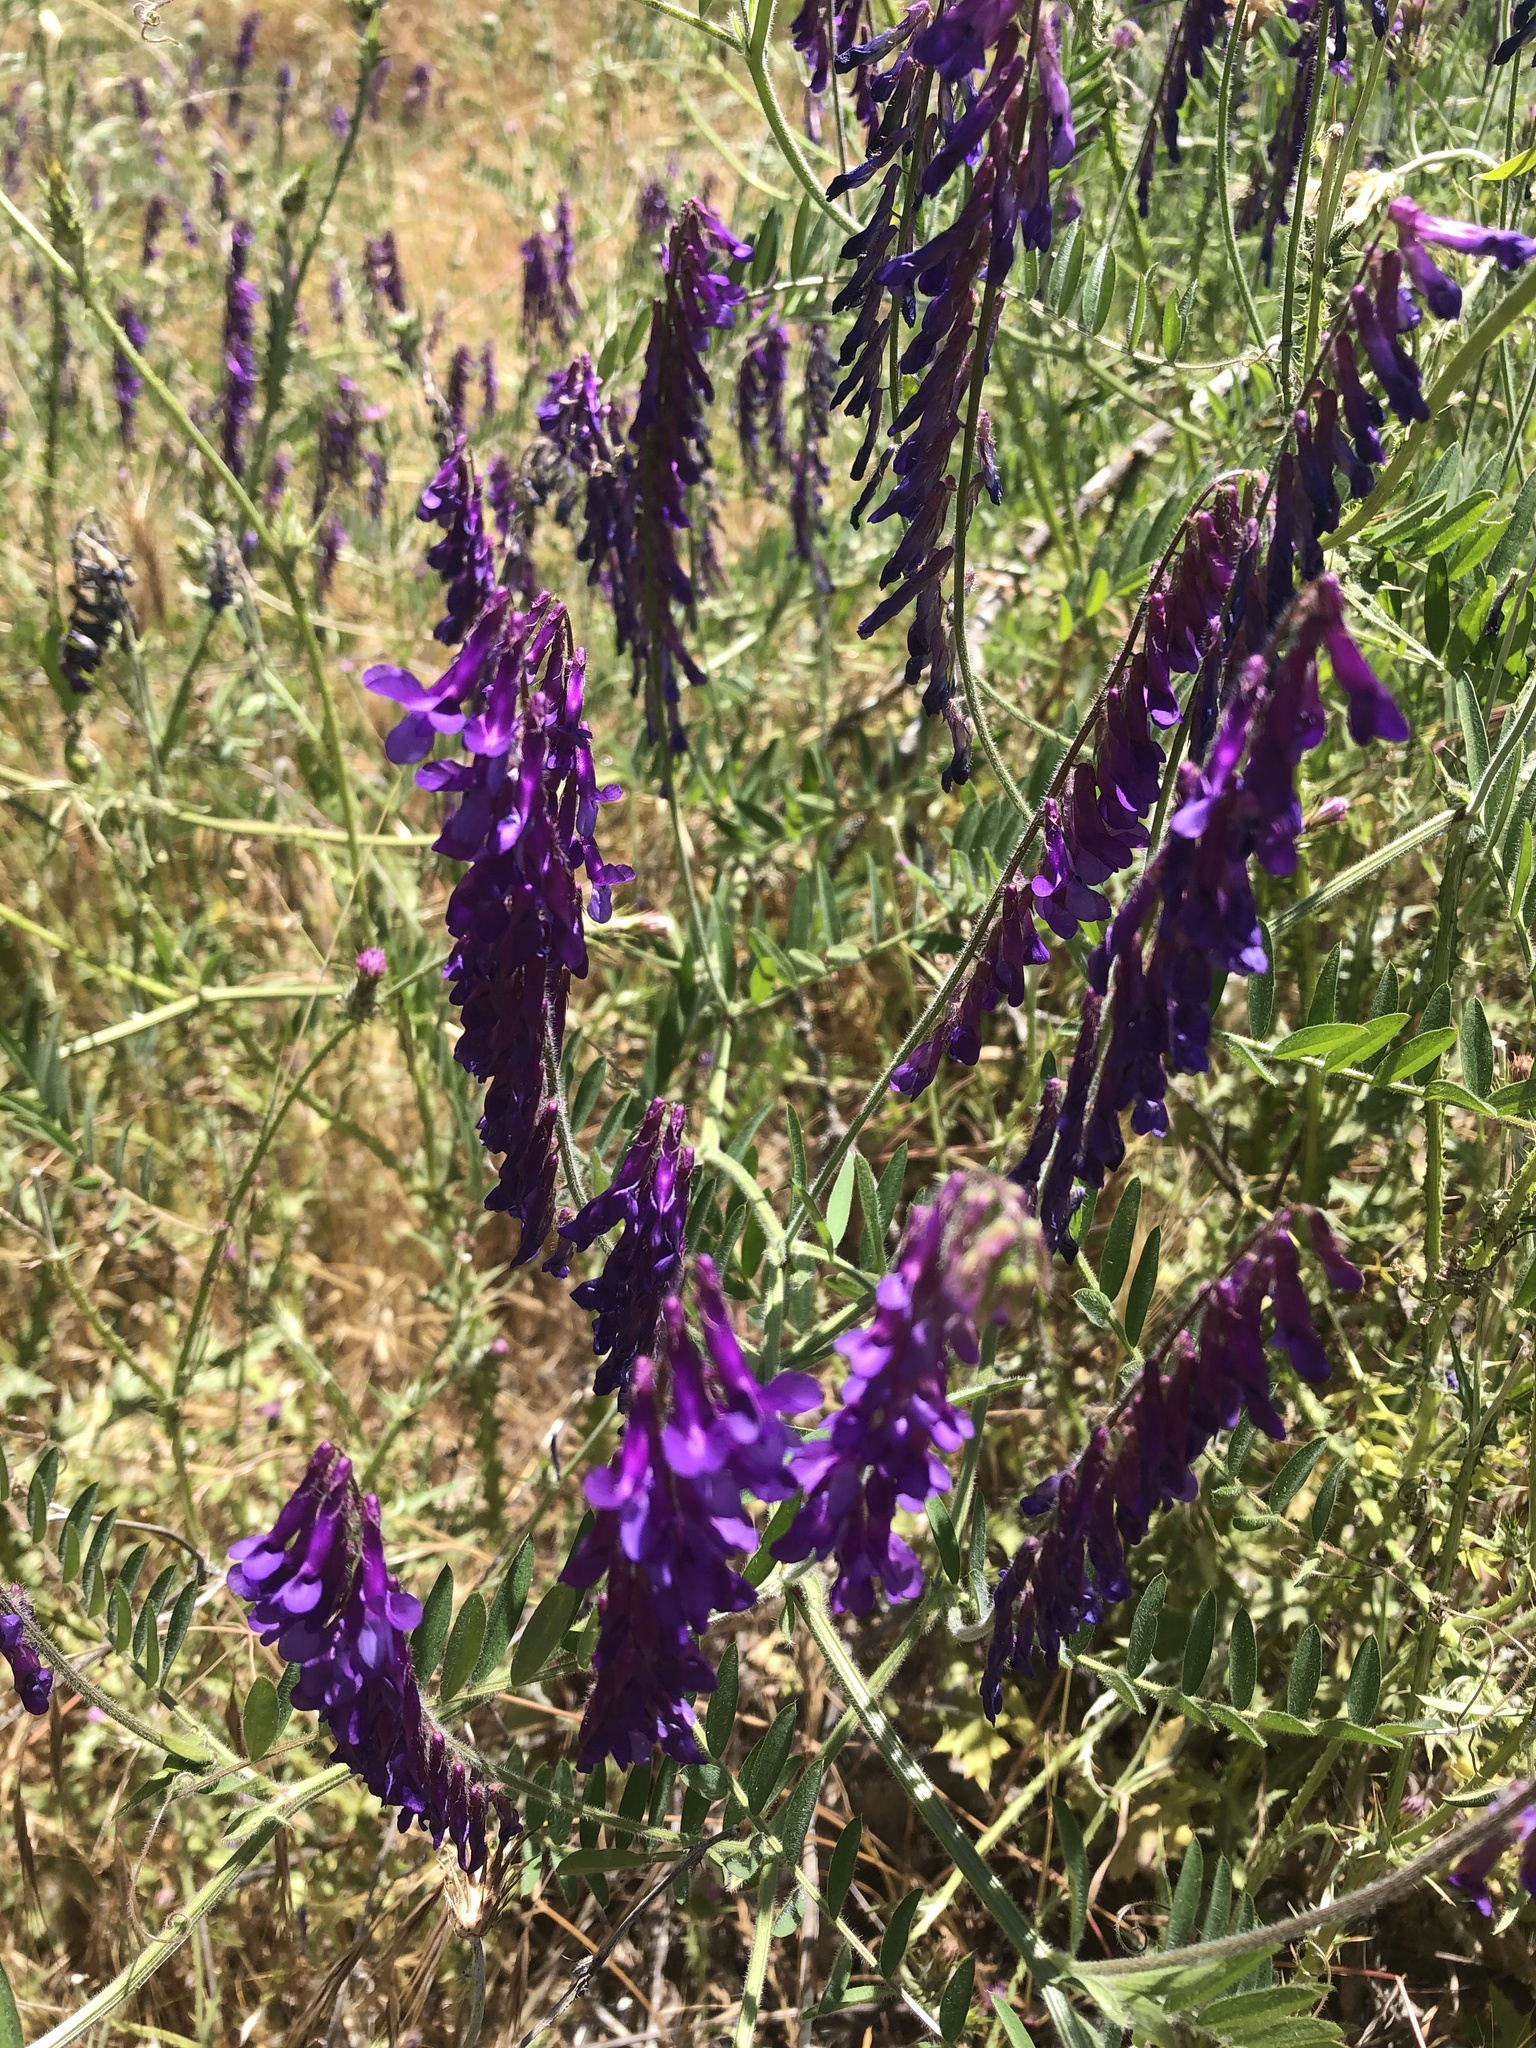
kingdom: Plantae
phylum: Tracheophyta
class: Magnoliopsida
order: Fabales
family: Fabaceae
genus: Vicia
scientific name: Vicia villosa
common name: Fodder vetch
